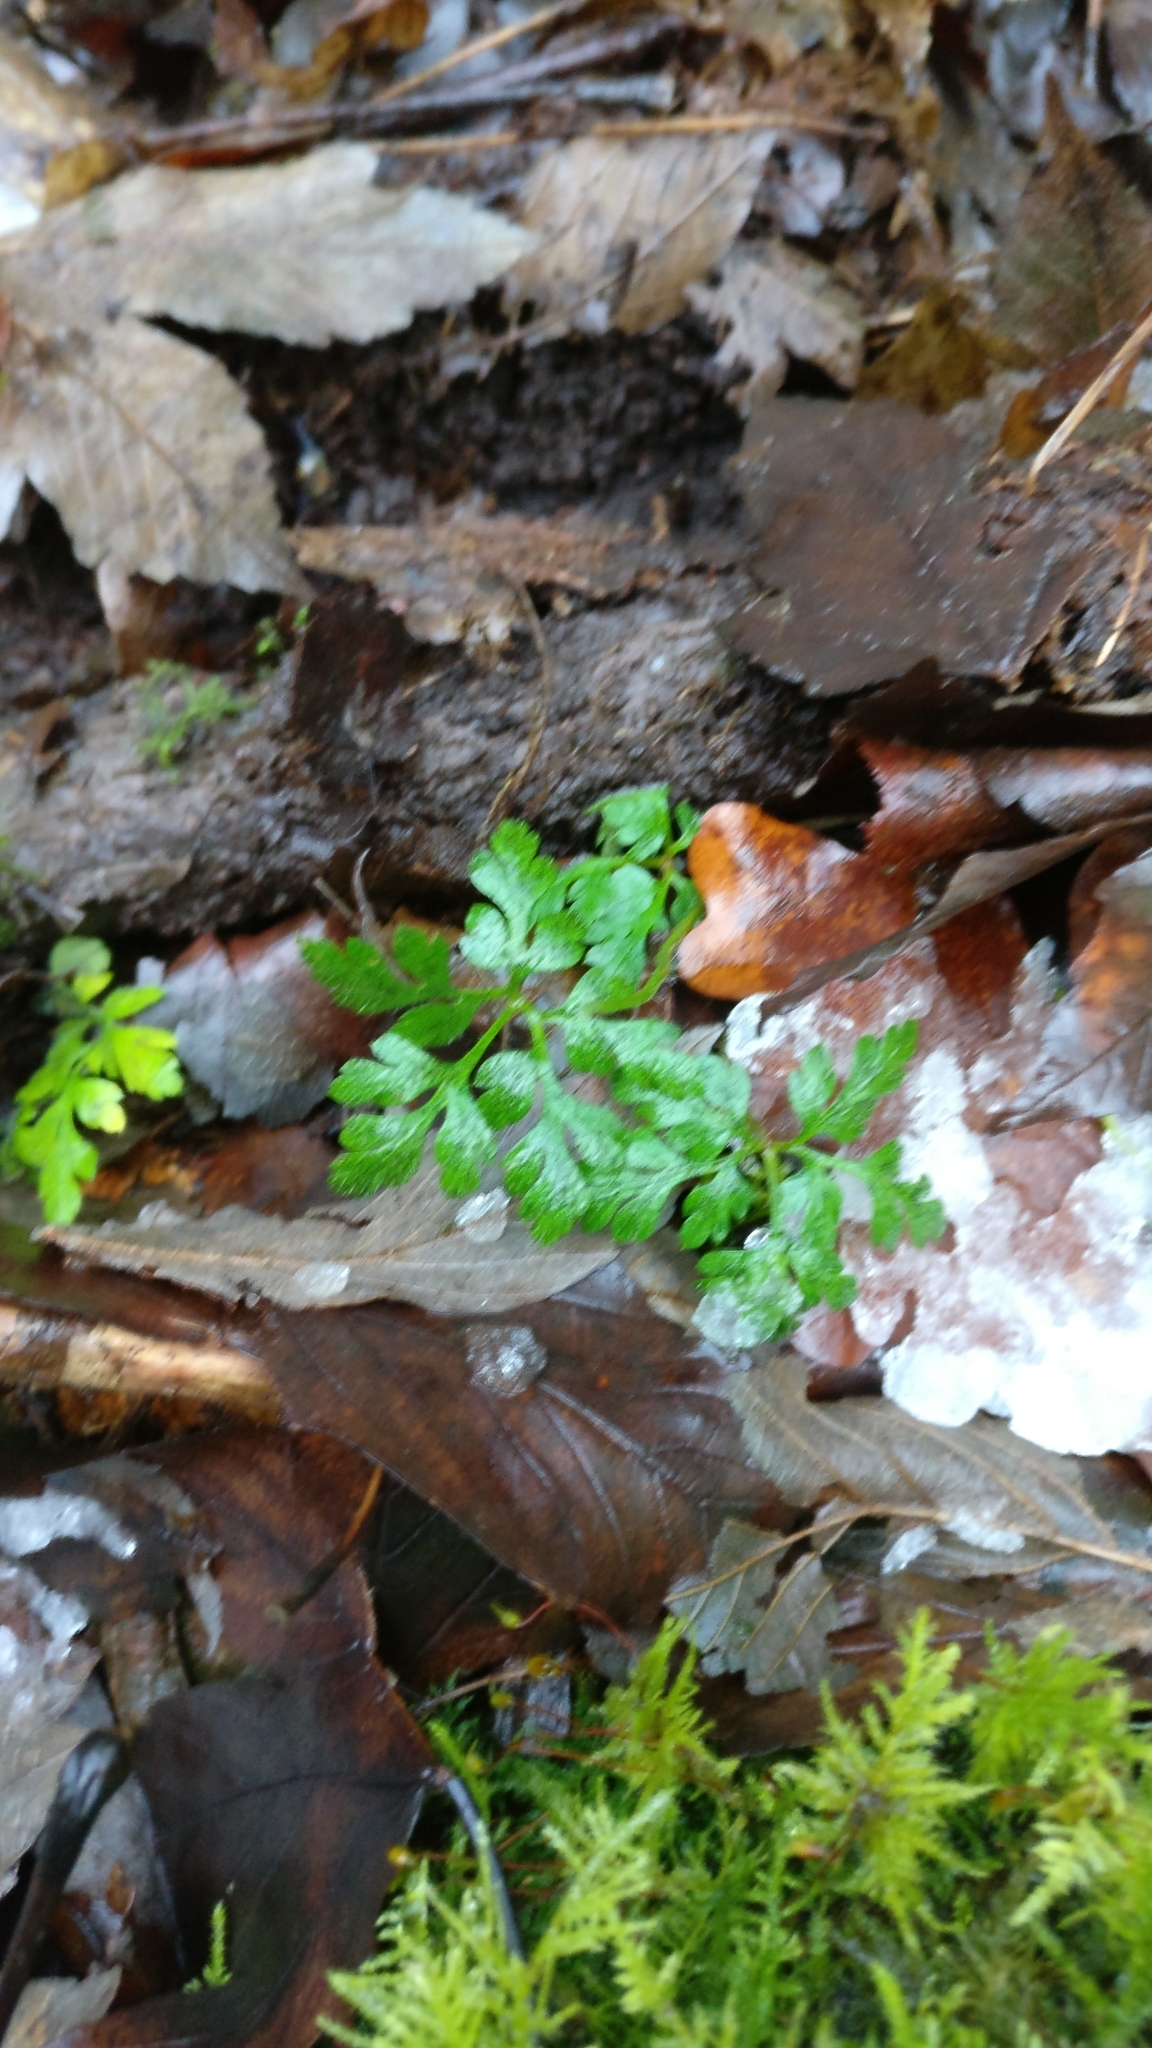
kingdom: Plantae
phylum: Tracheophyta
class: Magnoliopsida
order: Geraniales
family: Geraniaceae
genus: Geranium
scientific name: Geranium robertianum
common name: Herb-robert
